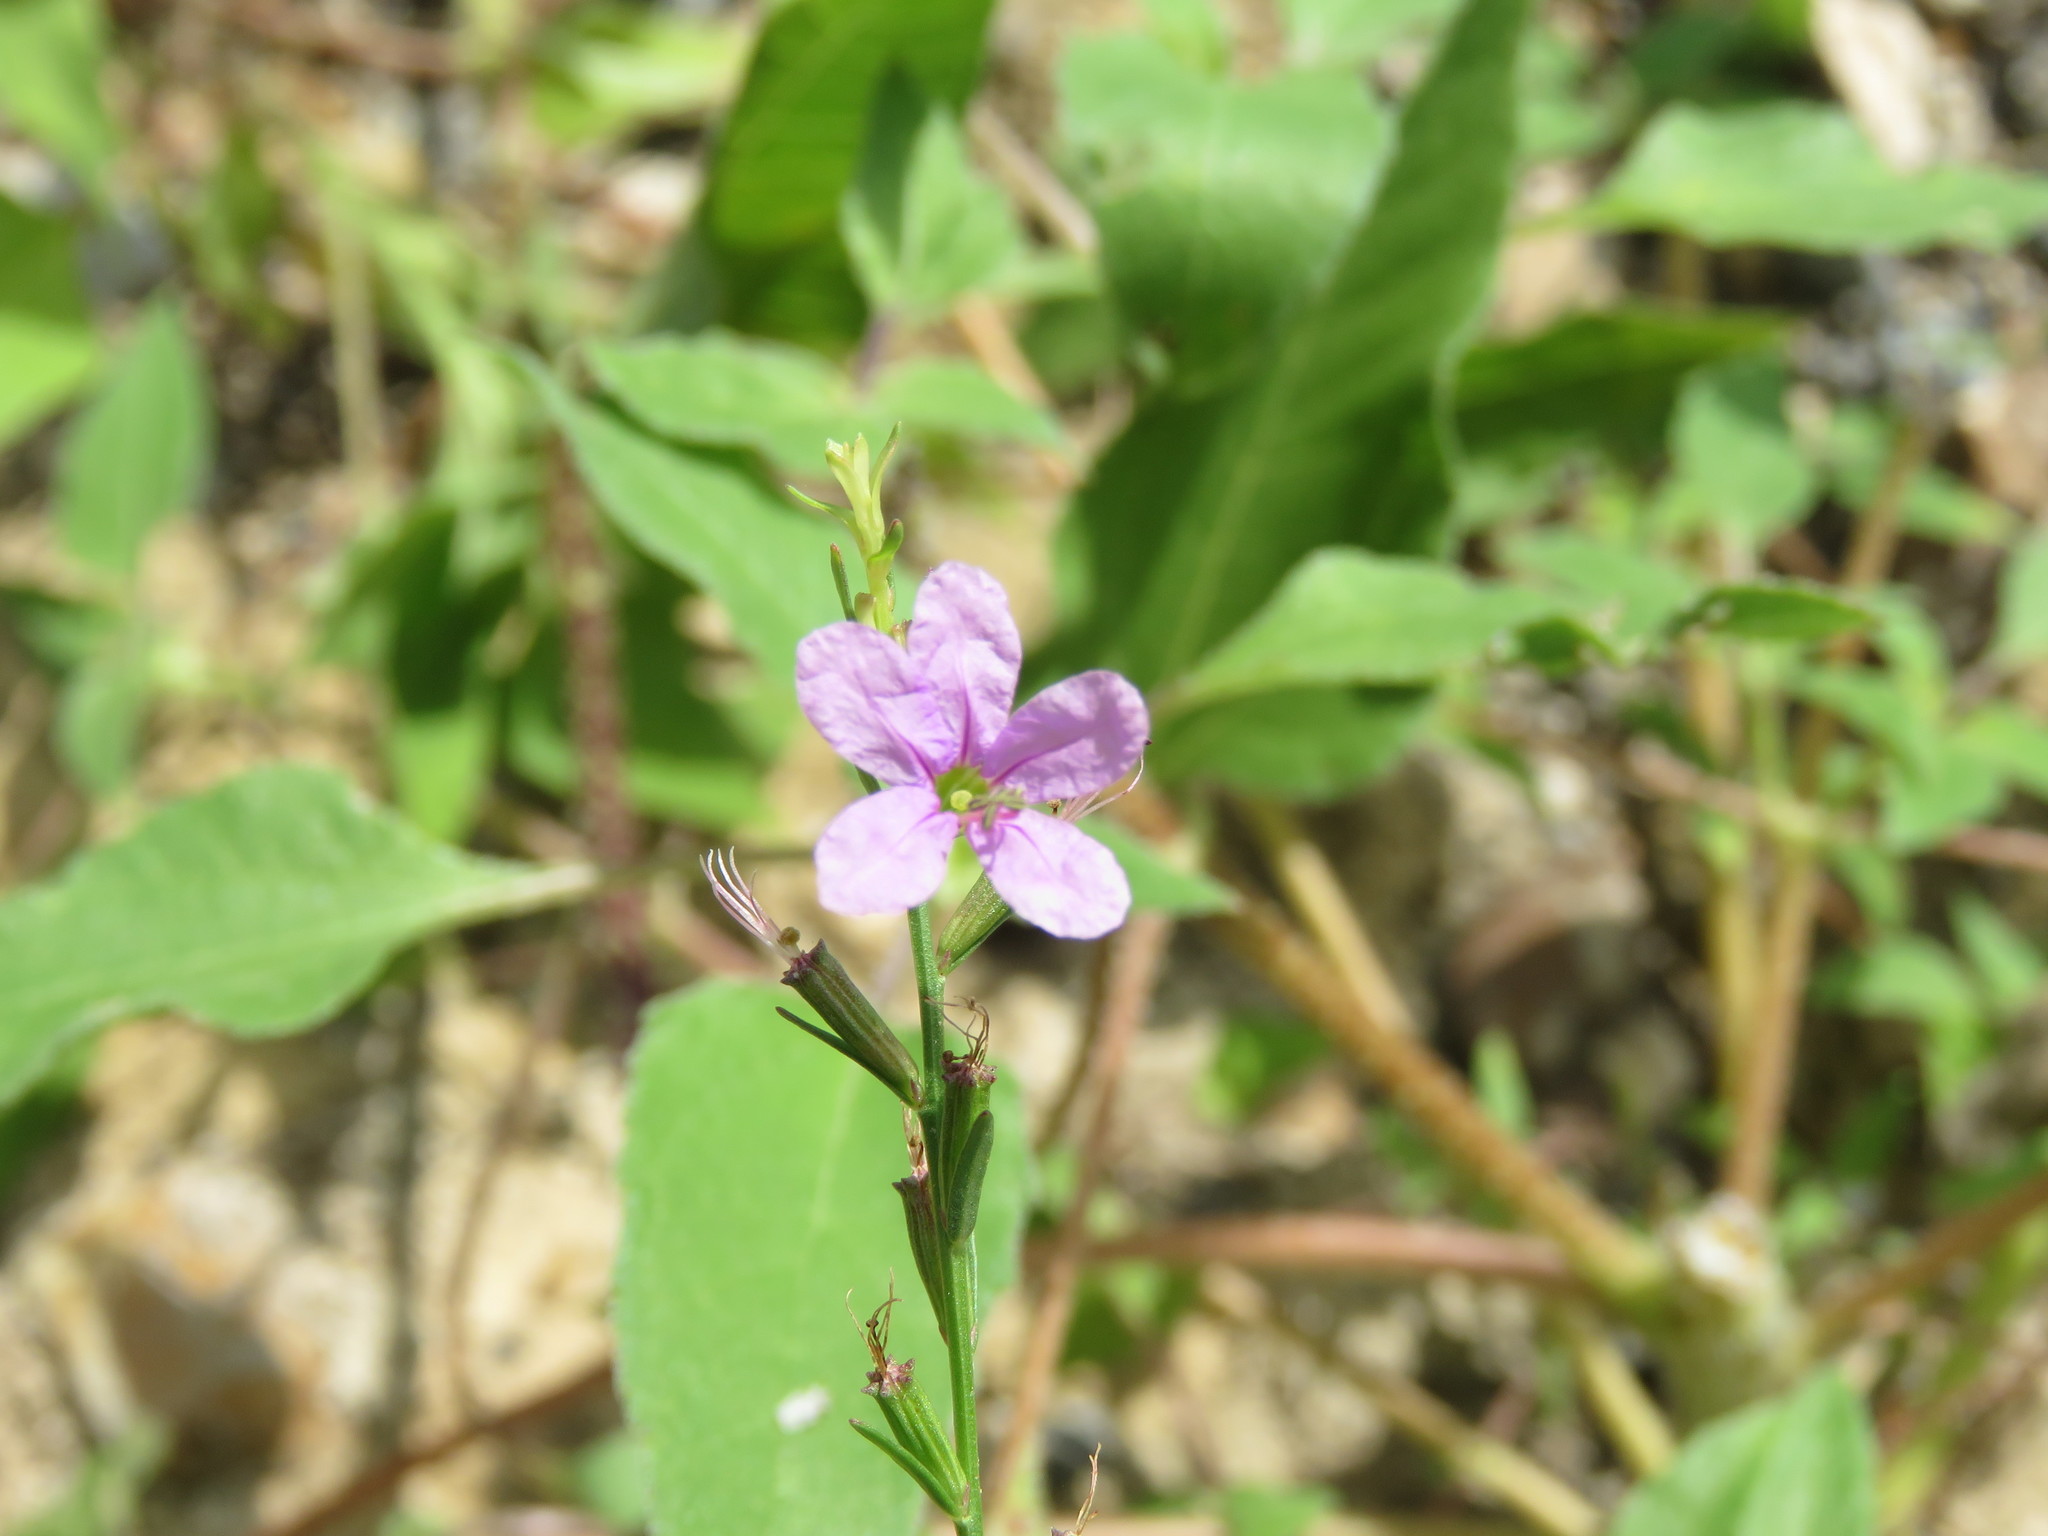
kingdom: Plantae
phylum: Tracheophyta
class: Magnoliopsida
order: Myrtales
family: Lythraceae
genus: Lythrum
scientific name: Lythrum californicum
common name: California loosestrife
